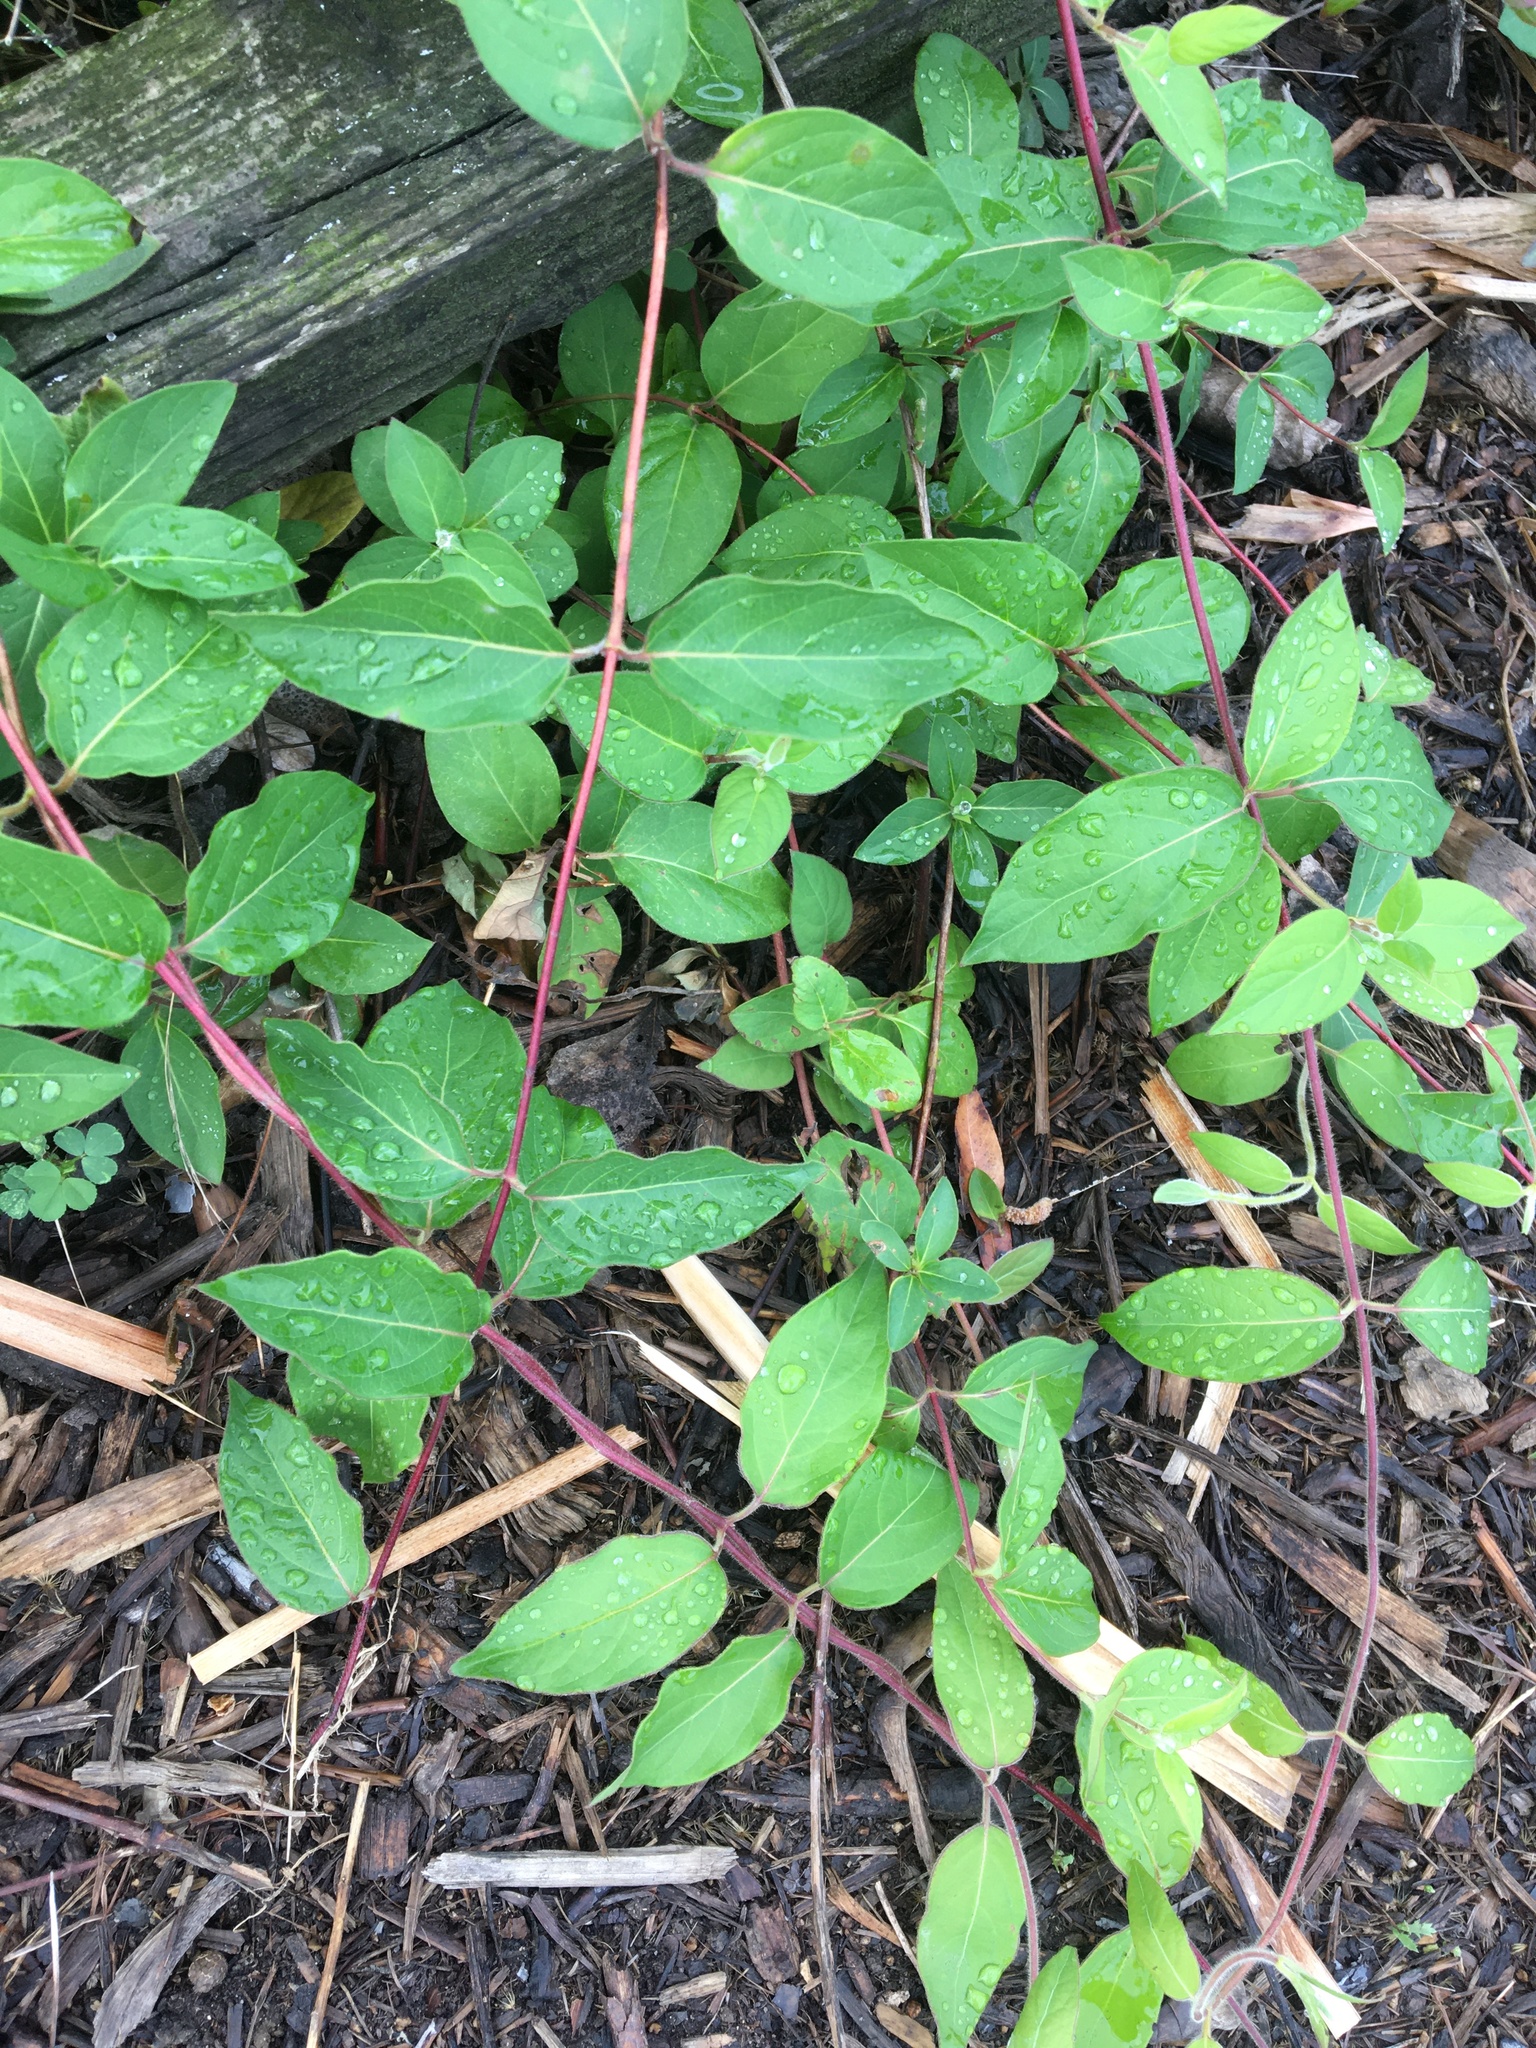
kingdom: Plantae
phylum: Tracheophyta
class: Magnoliopsida
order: Dipsacales
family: Caprifoliaceae
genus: Lonicera
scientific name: Lonicera japonica
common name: Japanese honeysuckle
